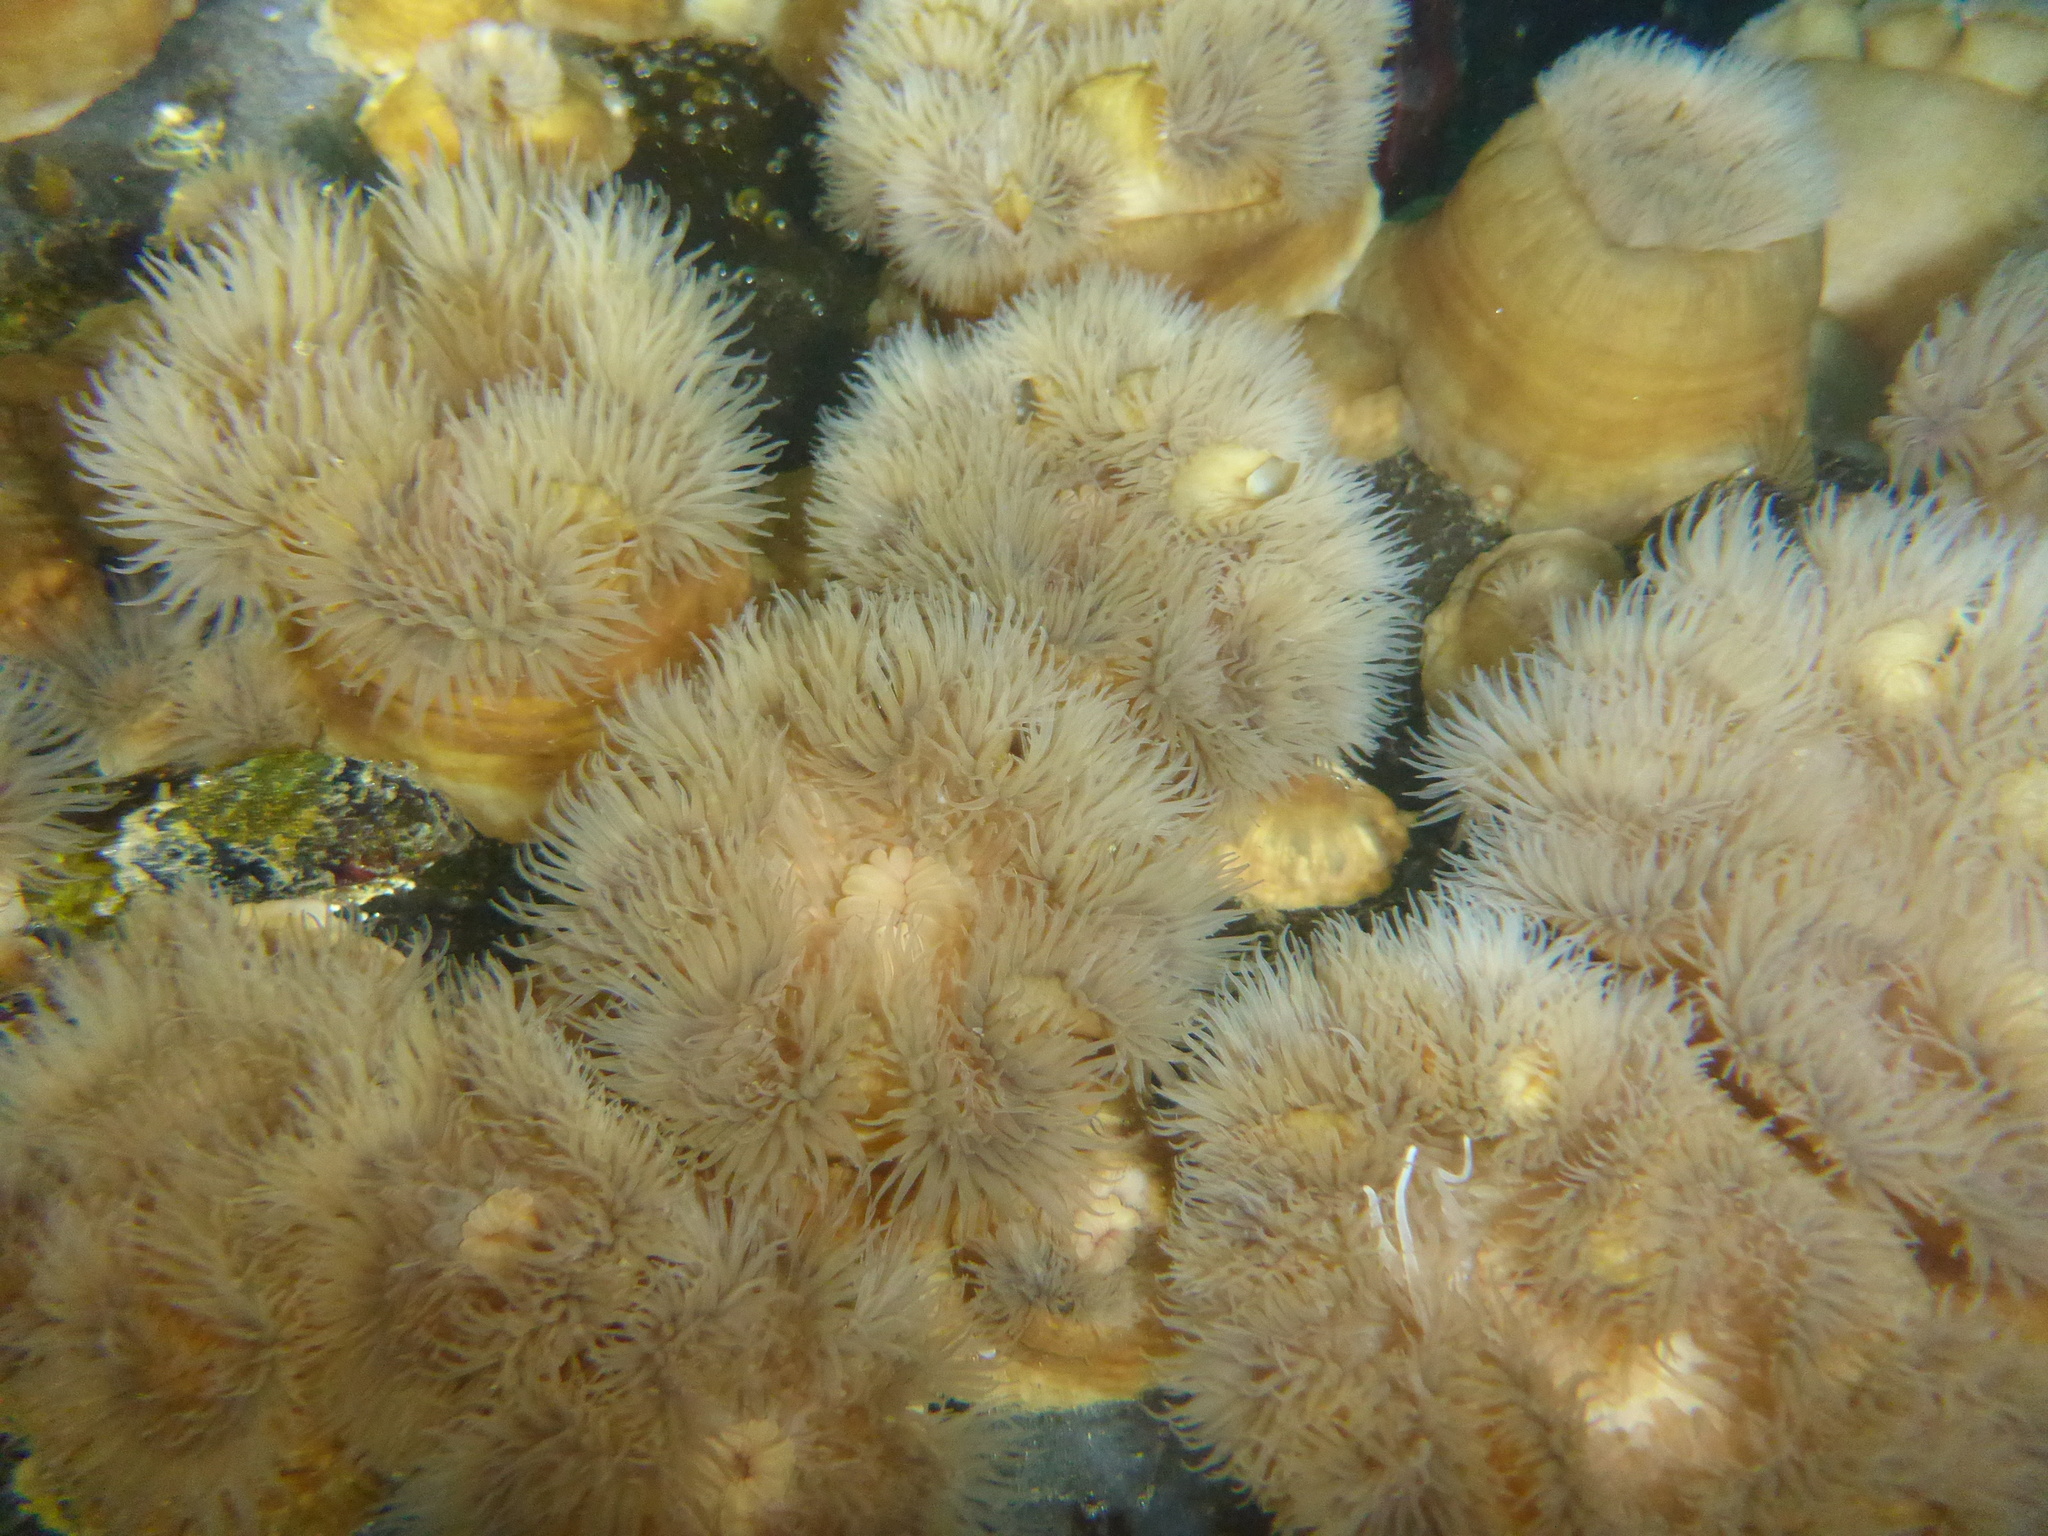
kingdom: Animalia
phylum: Cnidaria
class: Anthozoa
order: Actiniaria
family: Metridiidae
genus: Metridium
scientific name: Metridium senile
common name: Clonal plumose anemone
